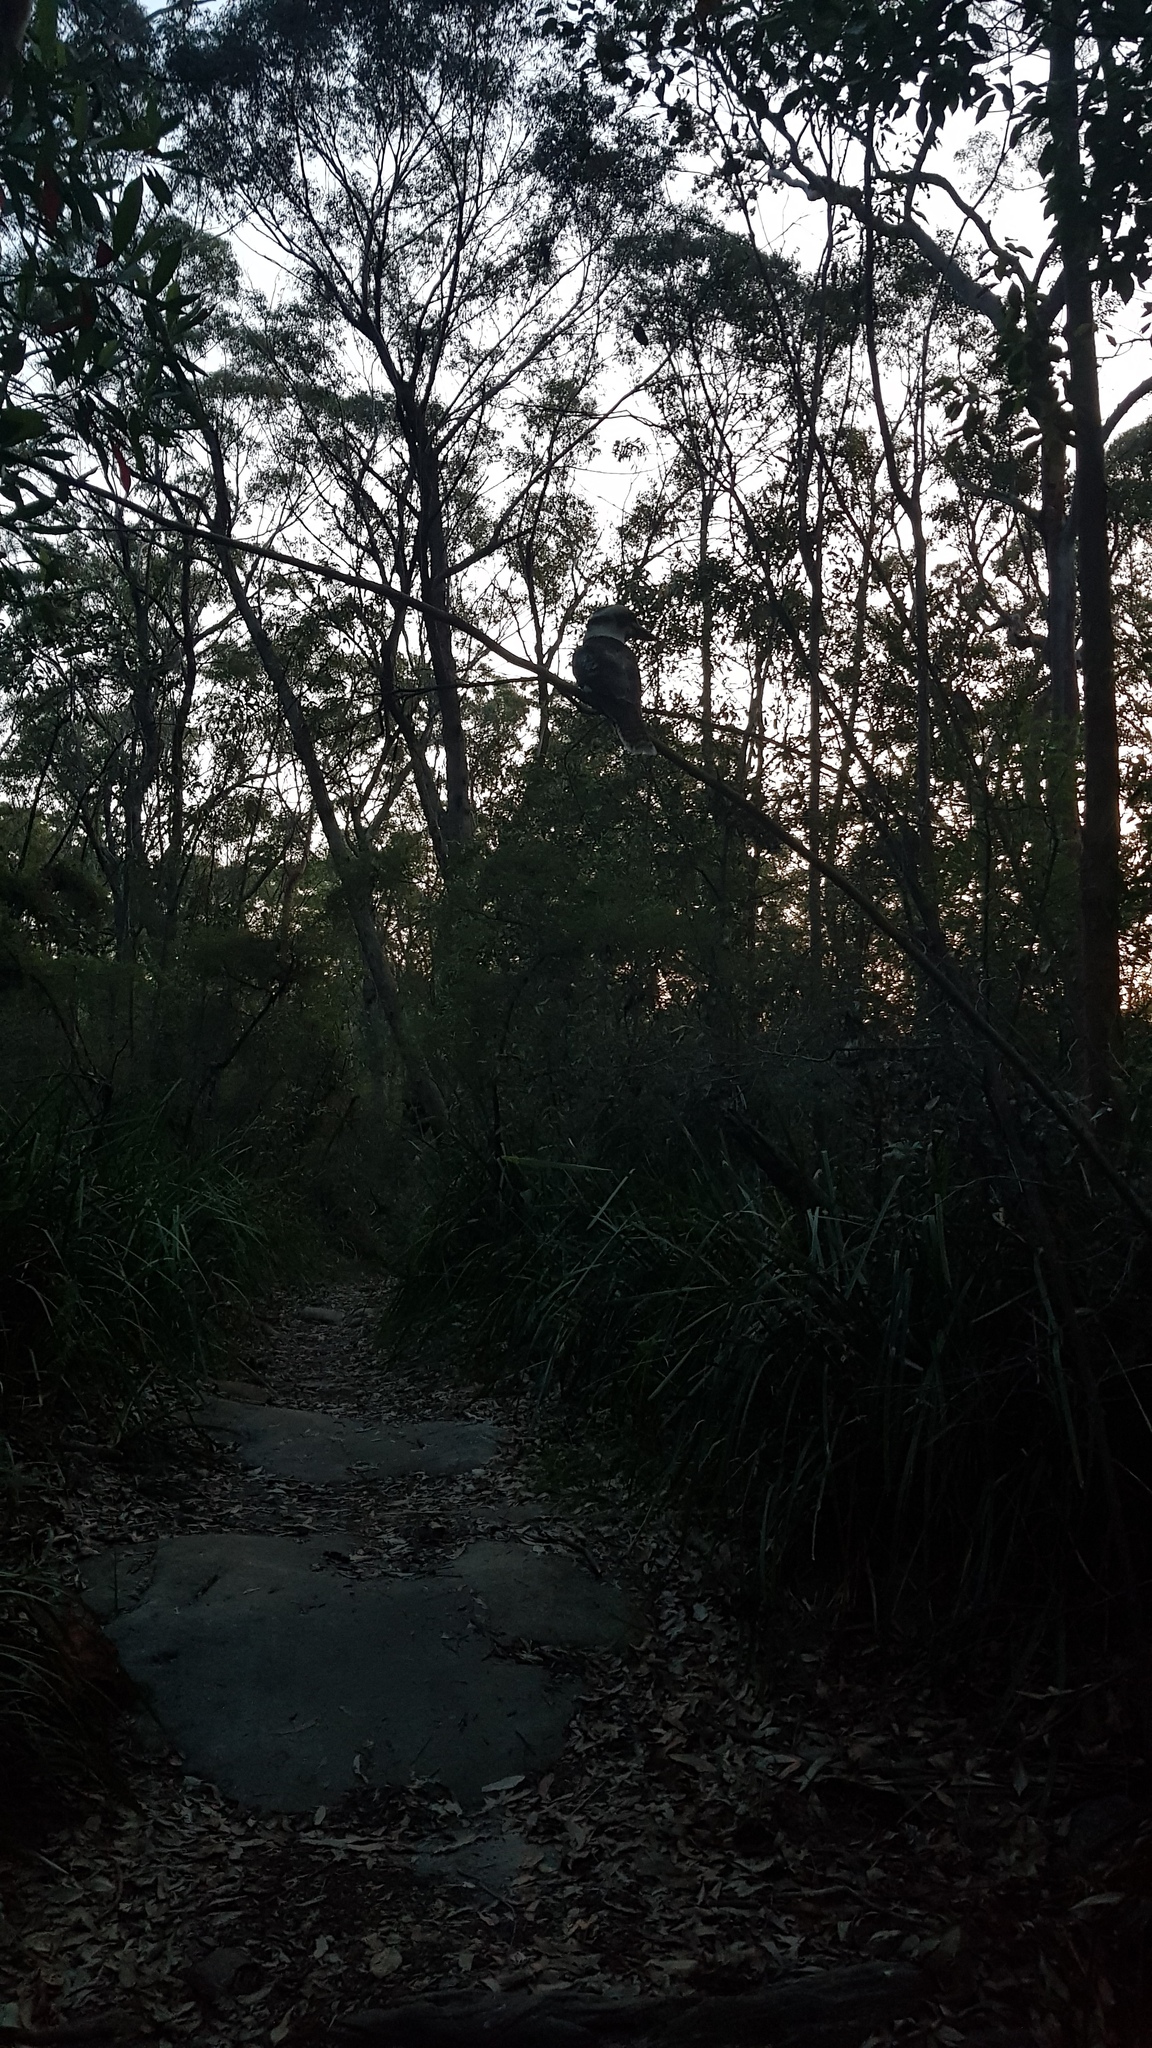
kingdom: Animalia
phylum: Chordata
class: Aves
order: Coraciiformes
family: Alcedinidae
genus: Dacelo
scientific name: Dacelo novaeguineae
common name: Laughing kookaburra
